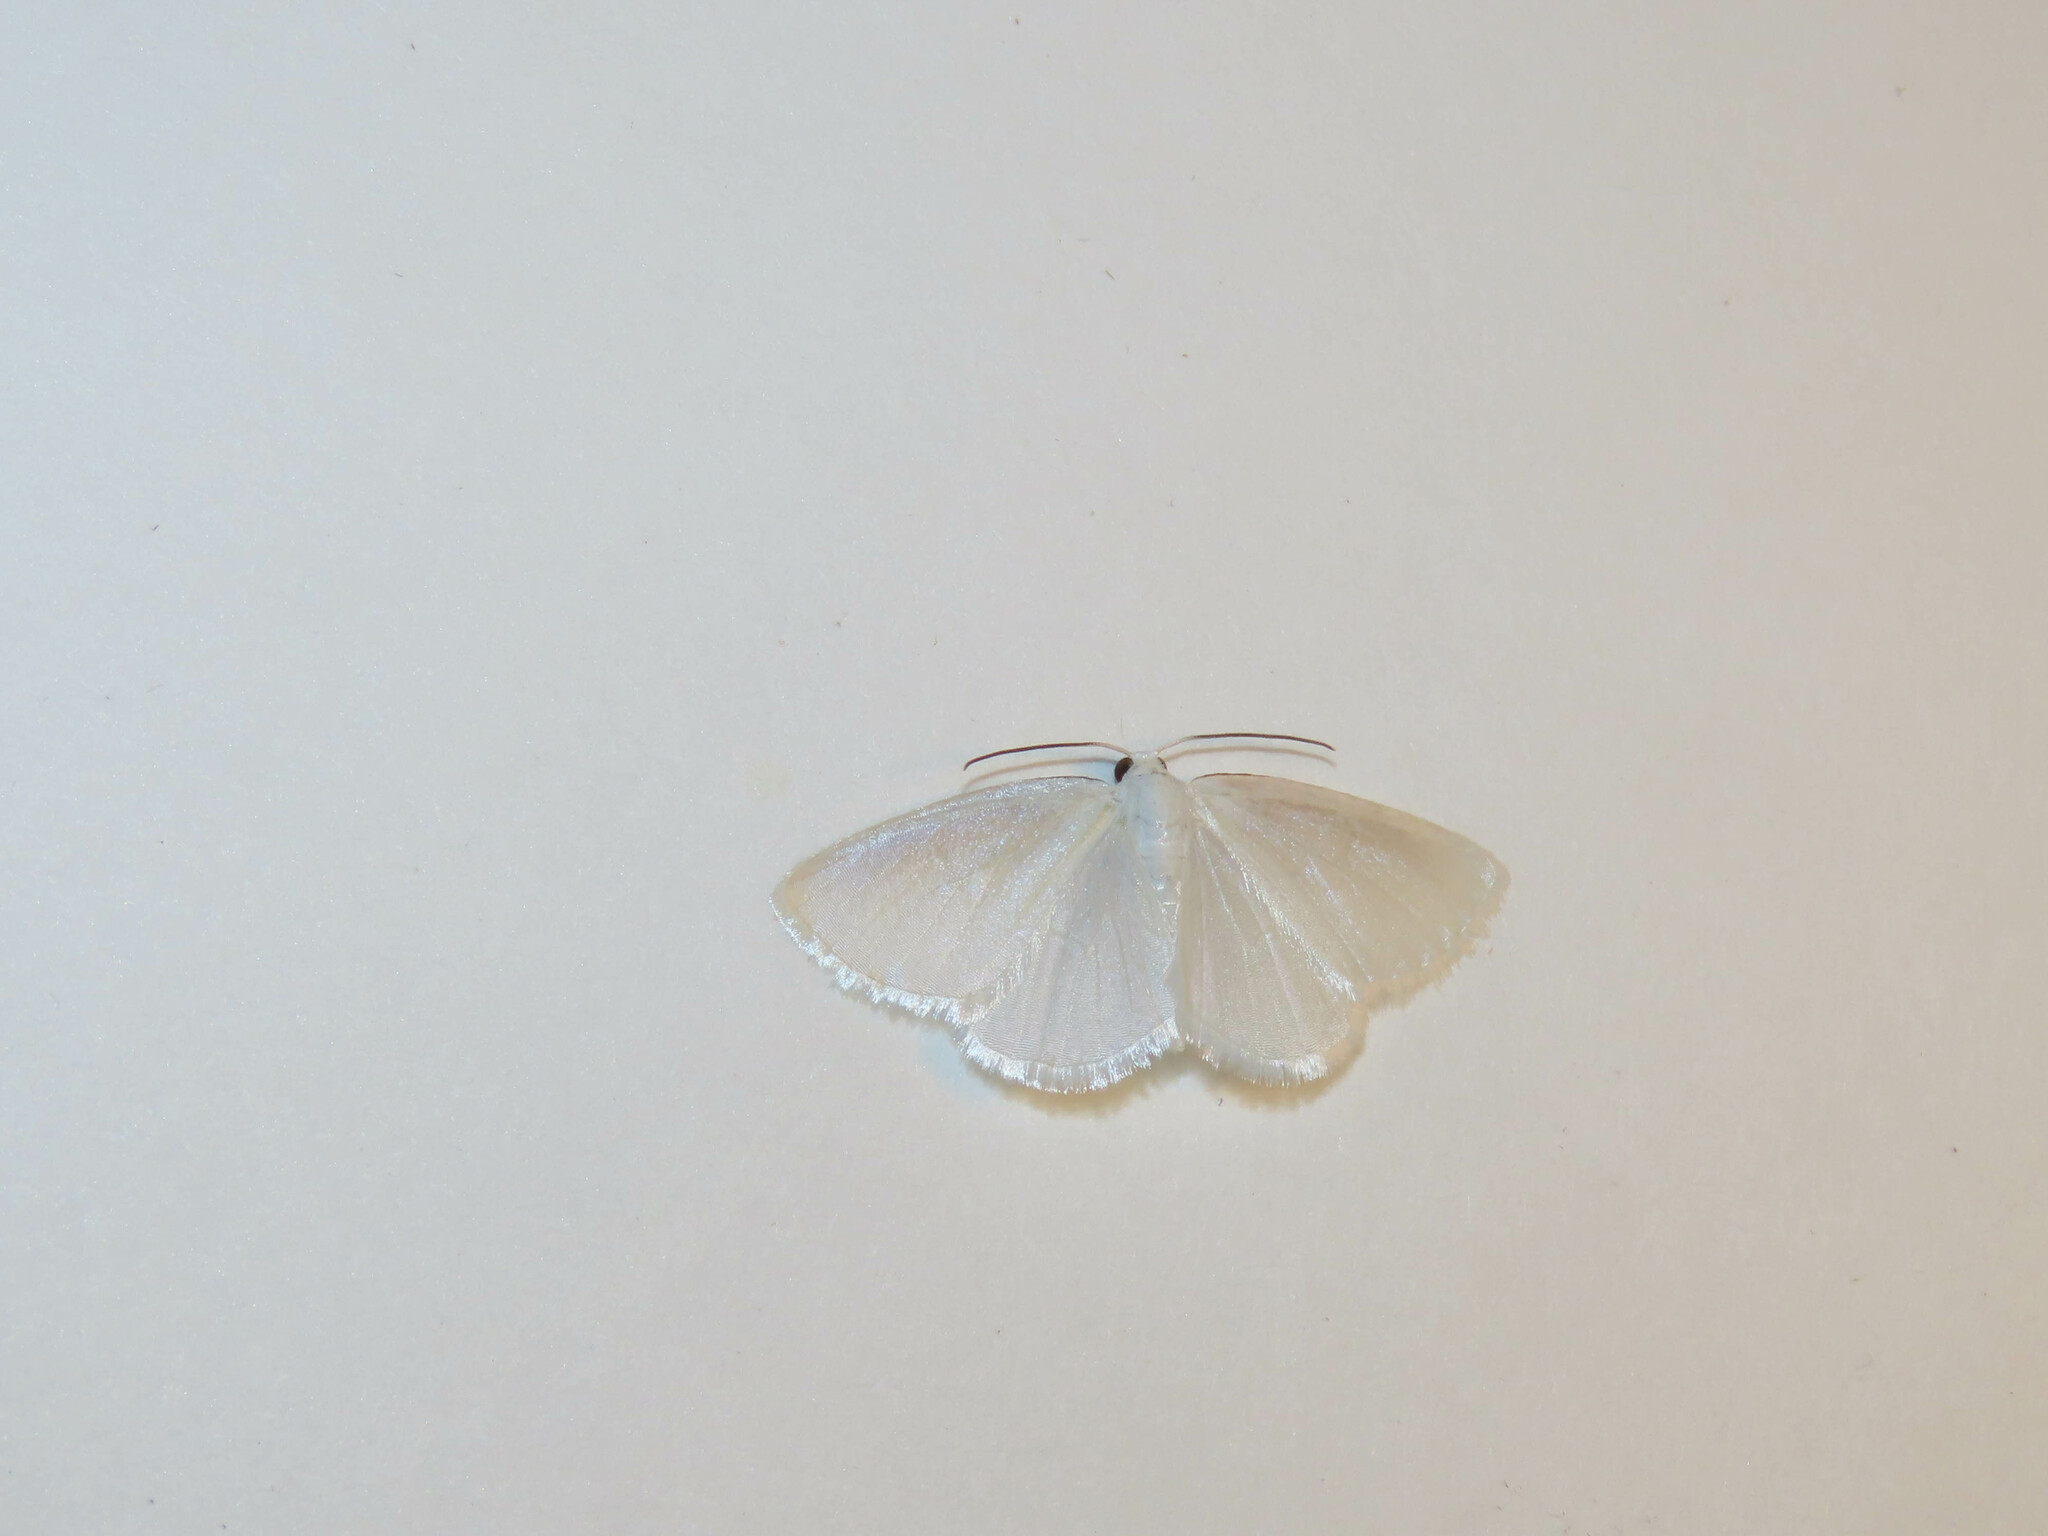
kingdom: Animalia
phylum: Arthropoda
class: Insecta
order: Lepidoptera
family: Geometridae
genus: Lomographa
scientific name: Lomographa vestaliata
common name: White spring moth
